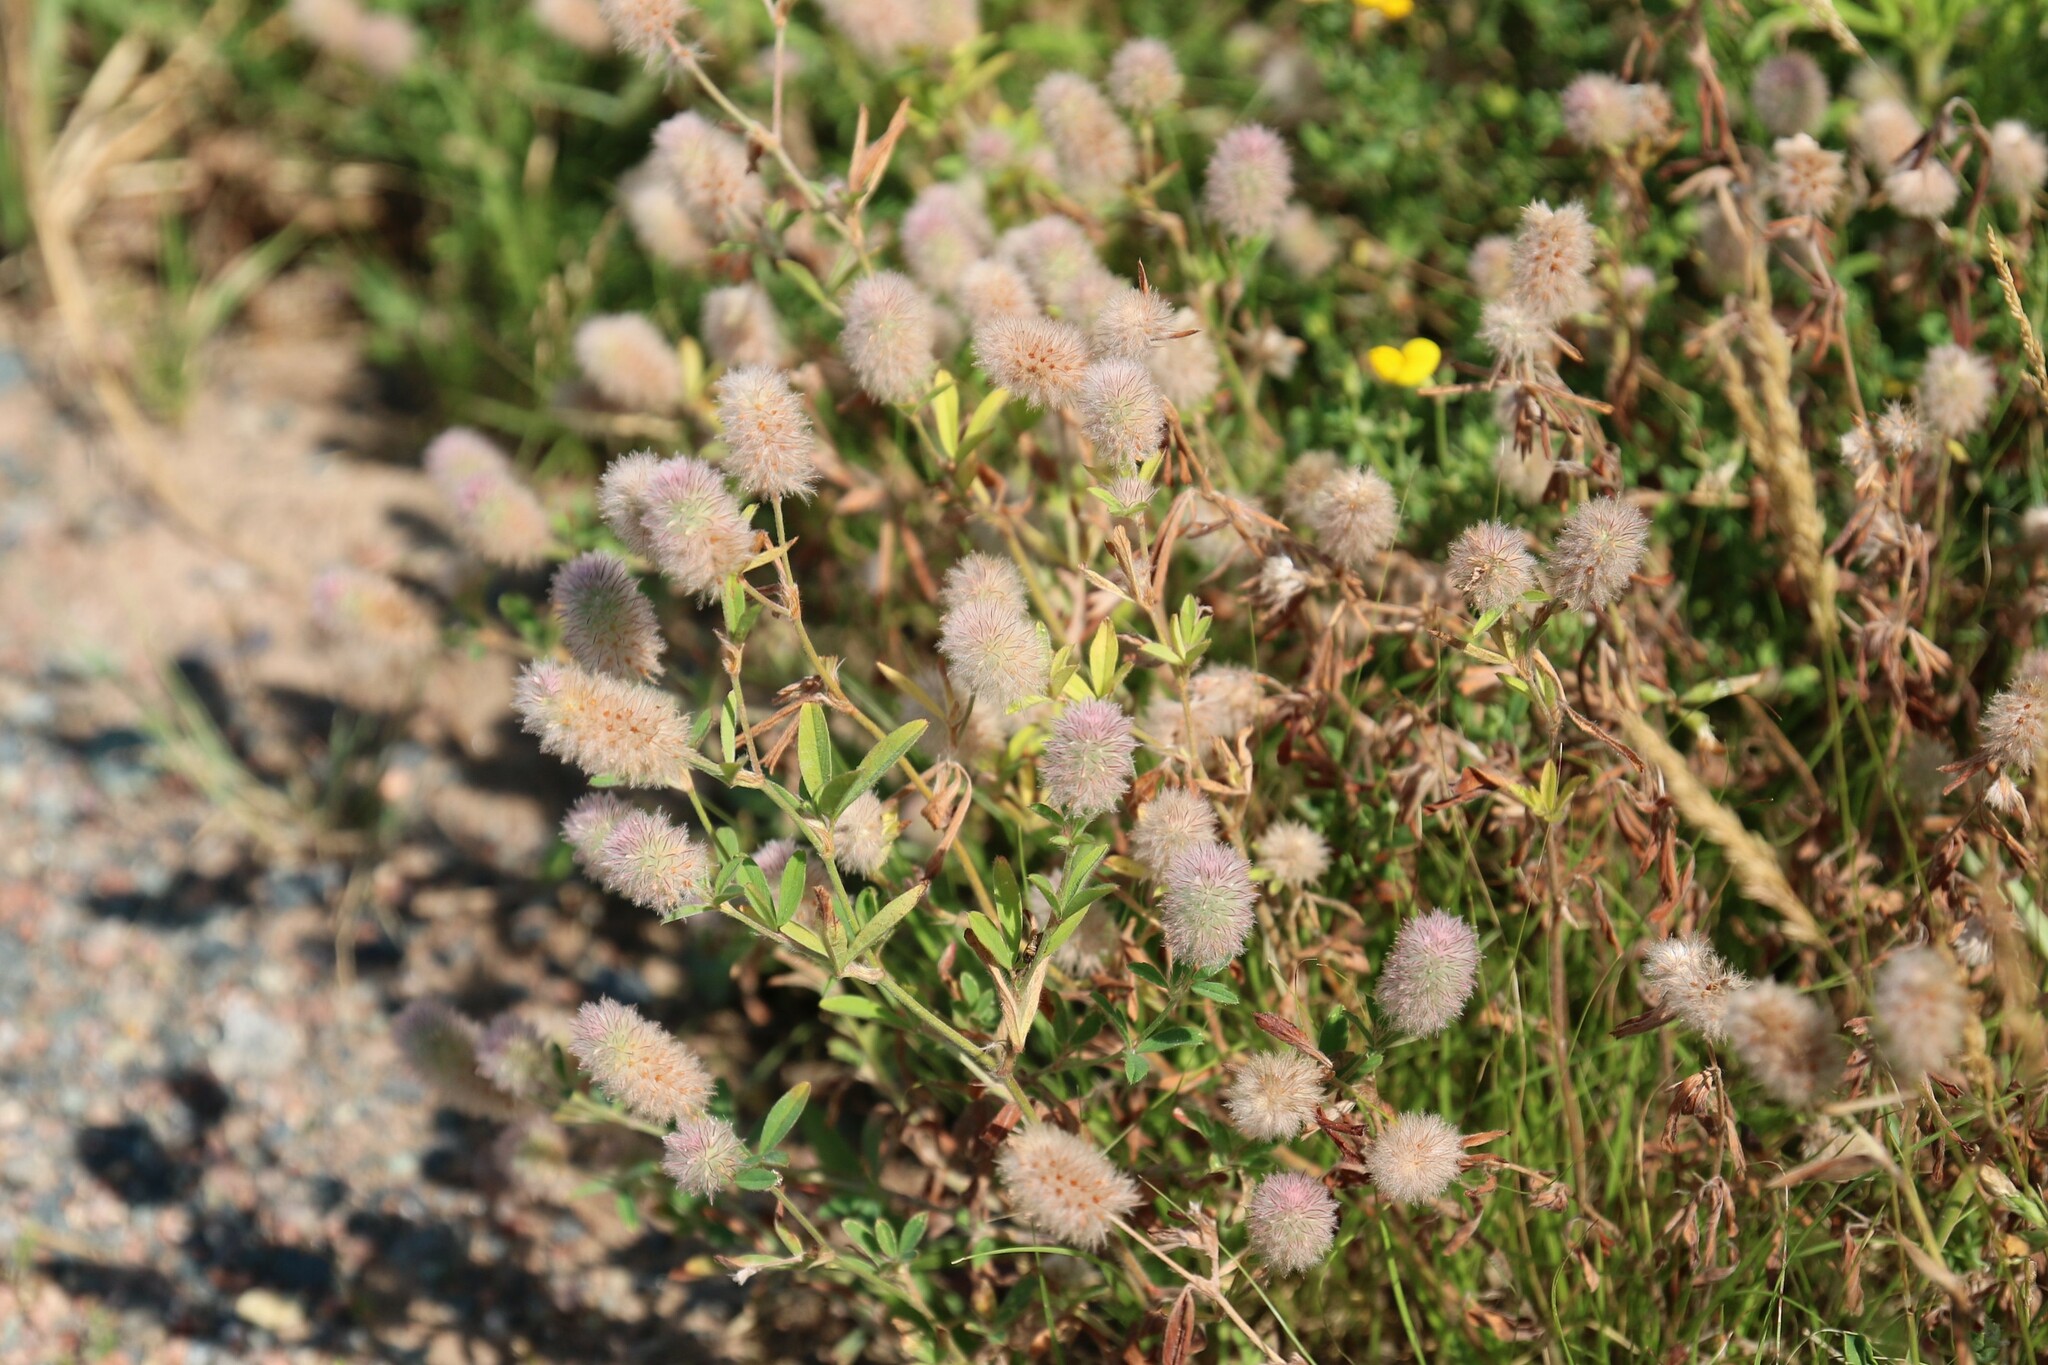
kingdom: Plantae
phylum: Tracheophyta
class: Magnoliopsida
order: Fabales
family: Fabaceae
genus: Trifolium
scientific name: Trifolium arvense
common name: Hare's-foot clover
